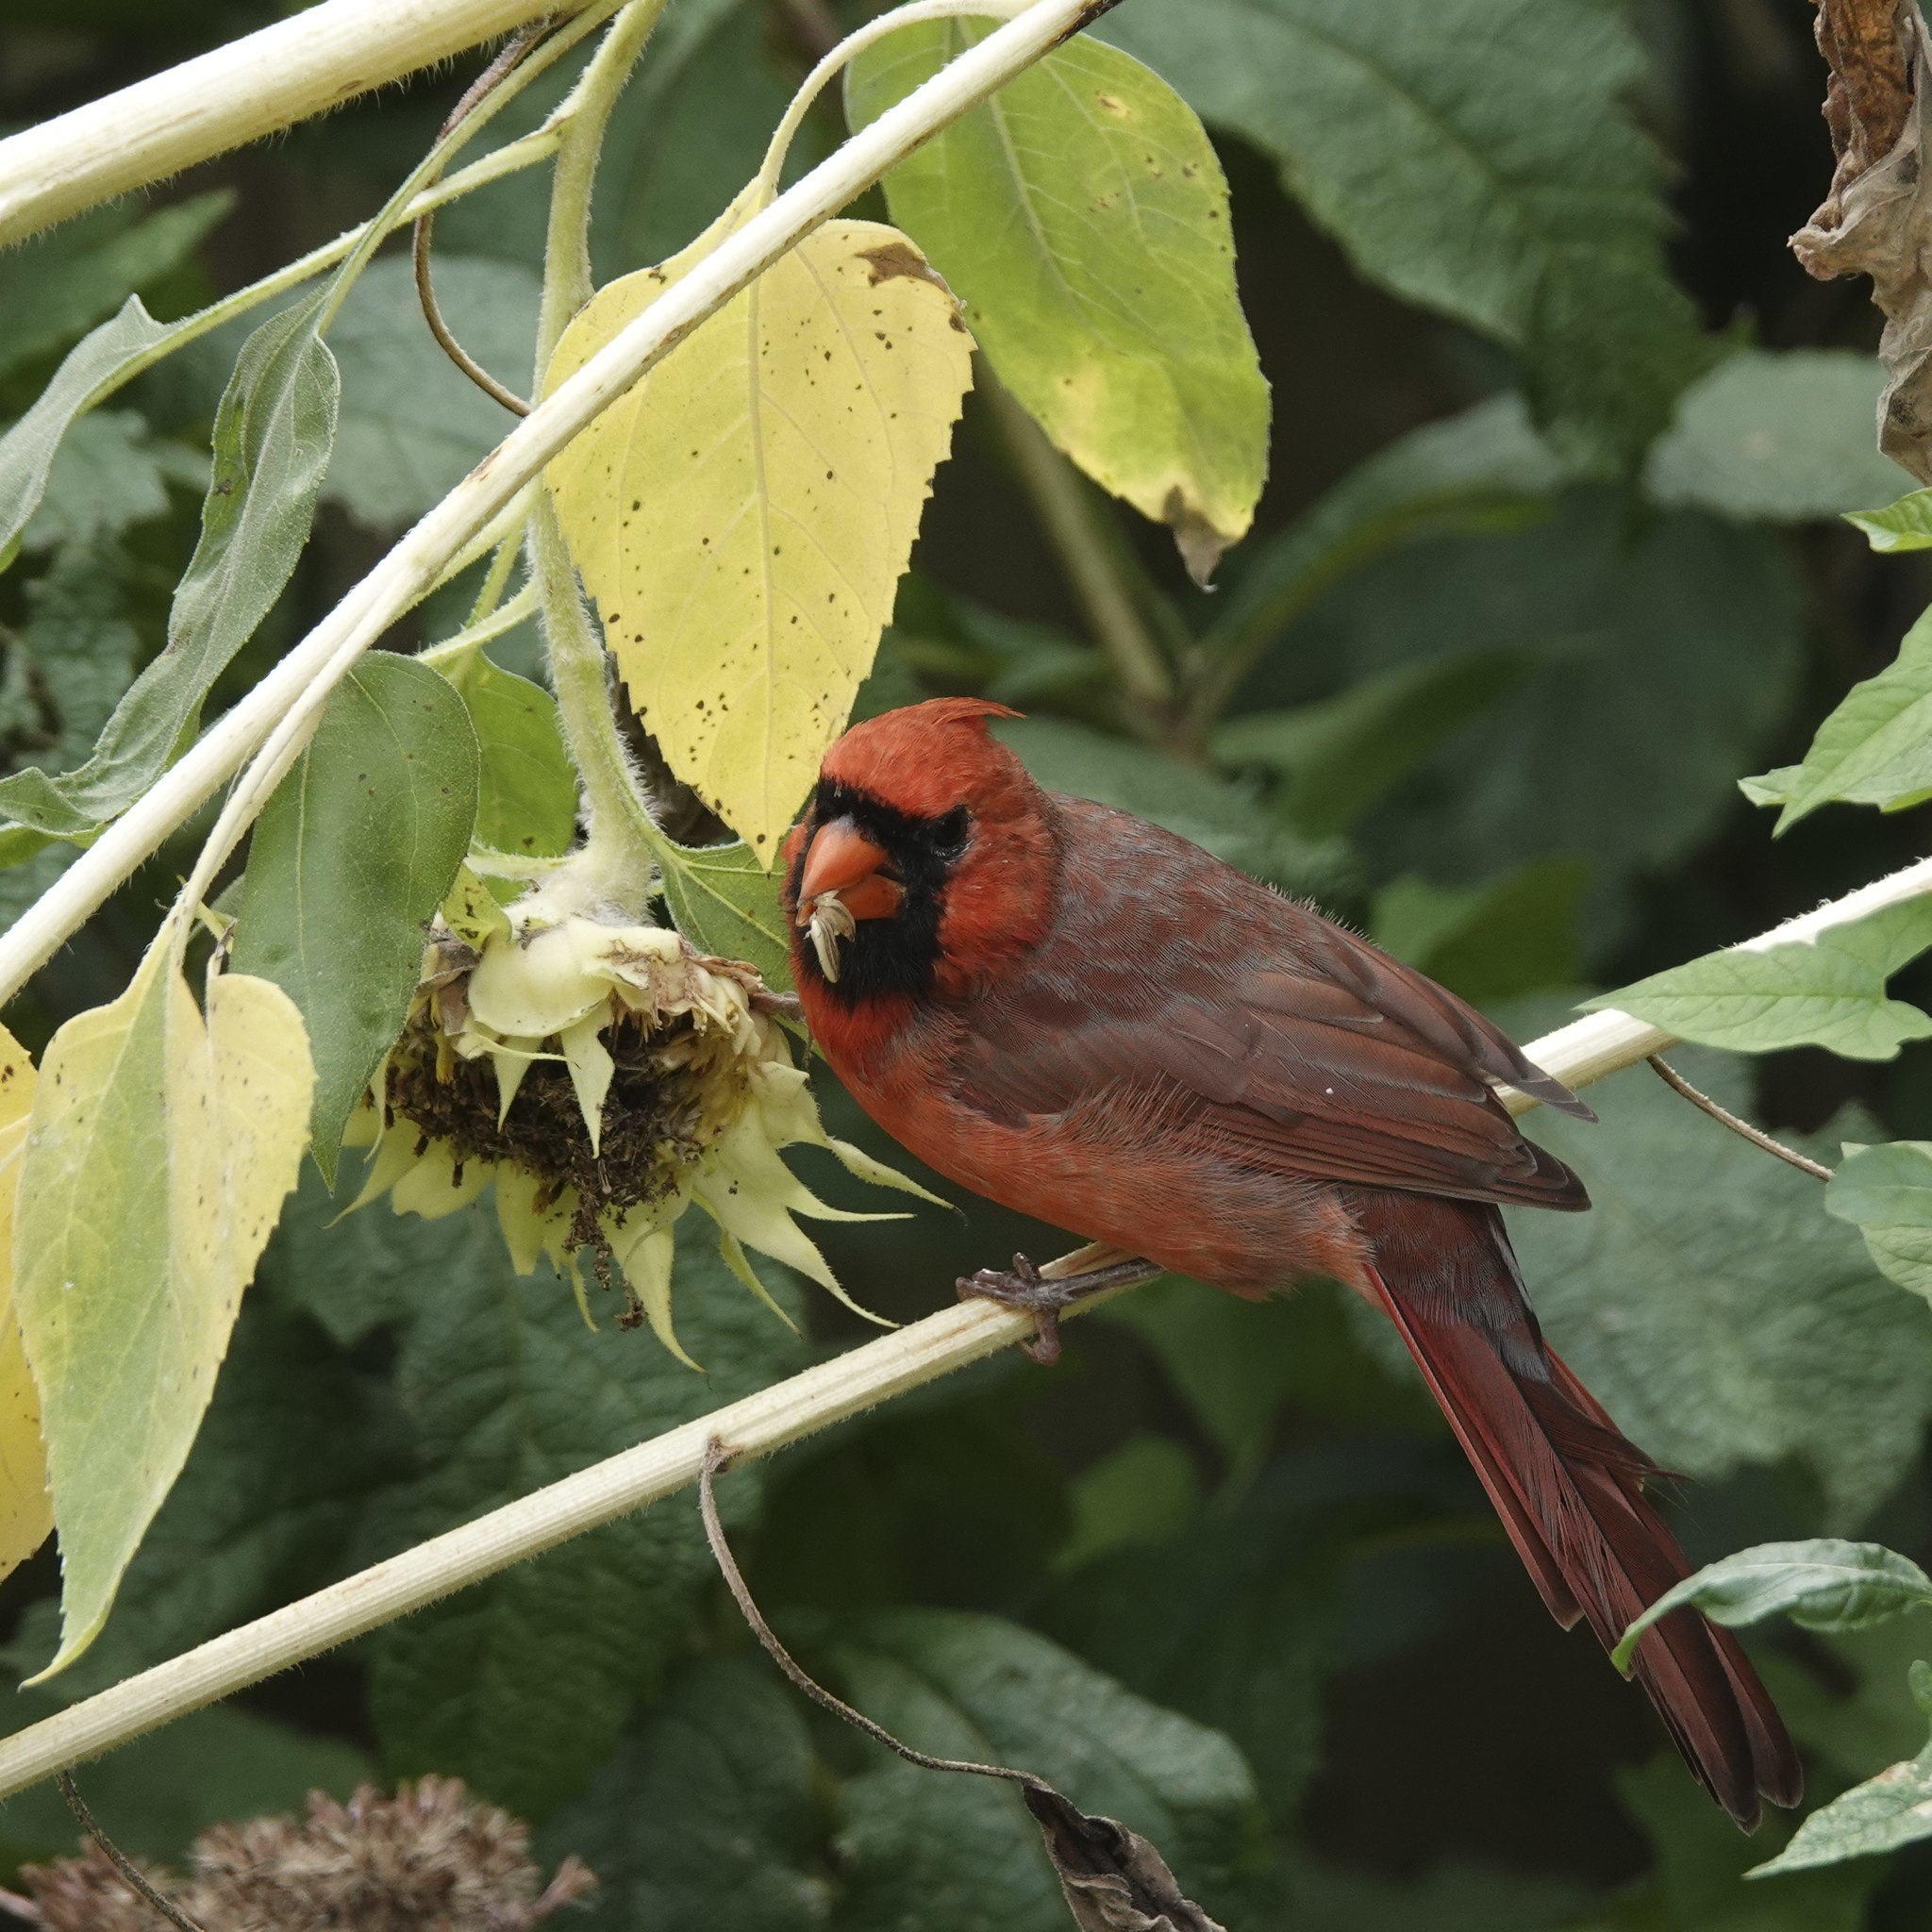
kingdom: Animalia
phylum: Chordata
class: Aves
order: Passeriformes
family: Cardinalidae
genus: Cardinalis
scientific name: Cardinalis cardinalis
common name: Northern cardinal
